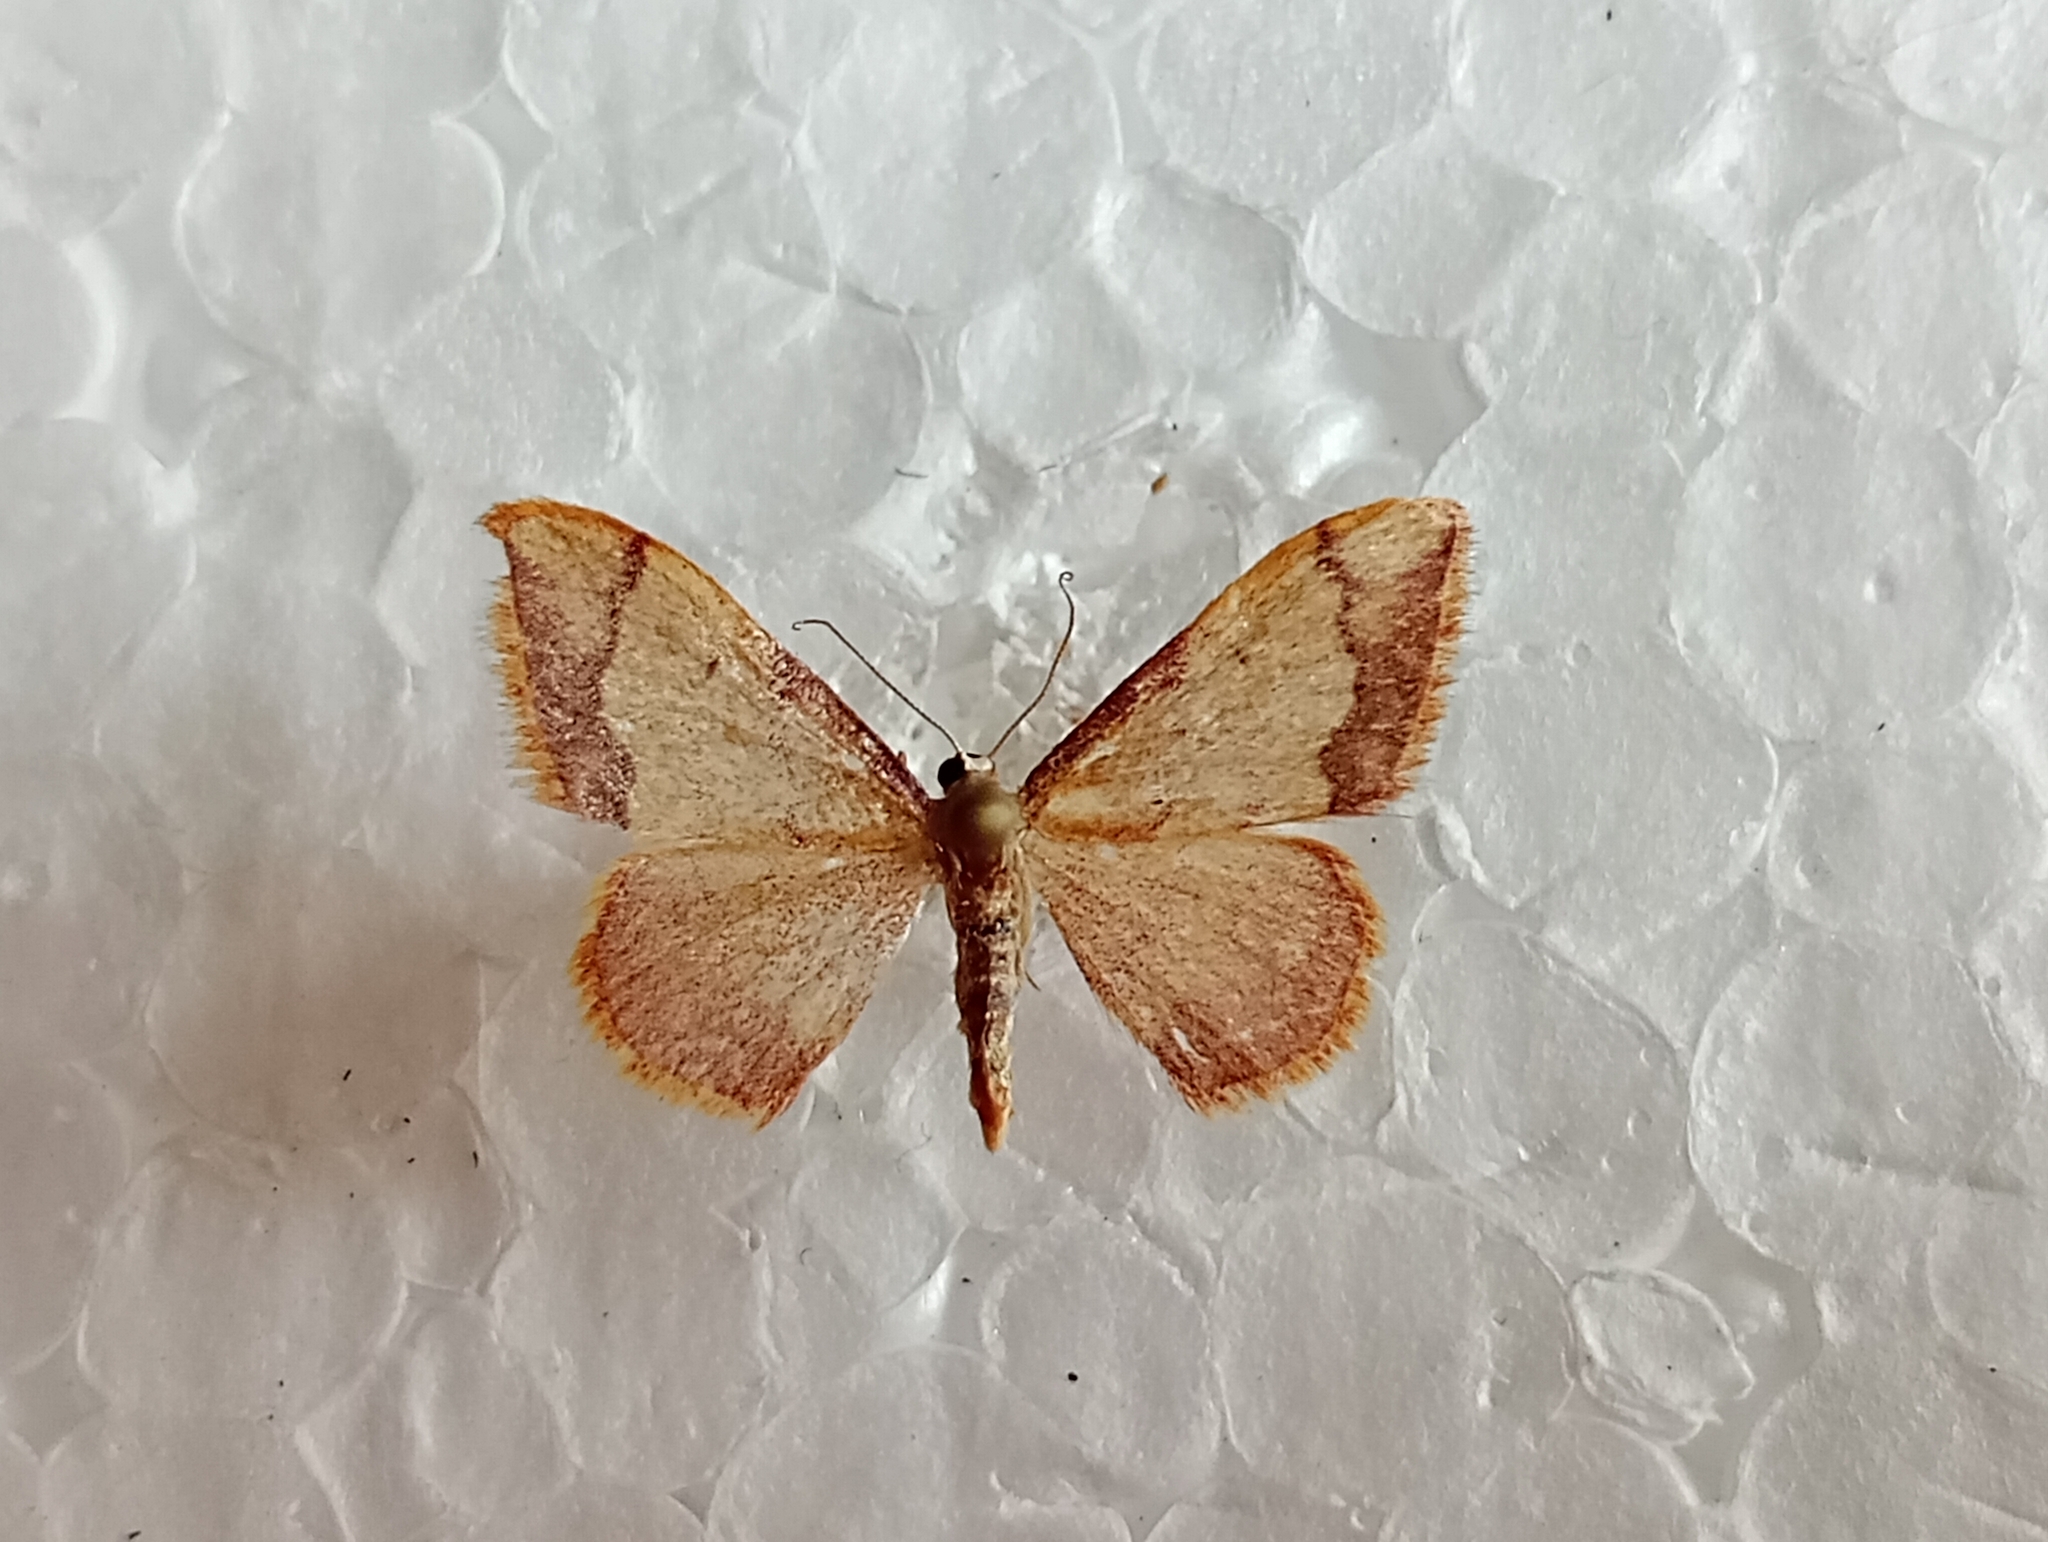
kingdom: Animalia
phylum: Arthropoda
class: Insecta
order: Lepidoptera
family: Geometridae
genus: Idaea
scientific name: Idaea ostrinaria
